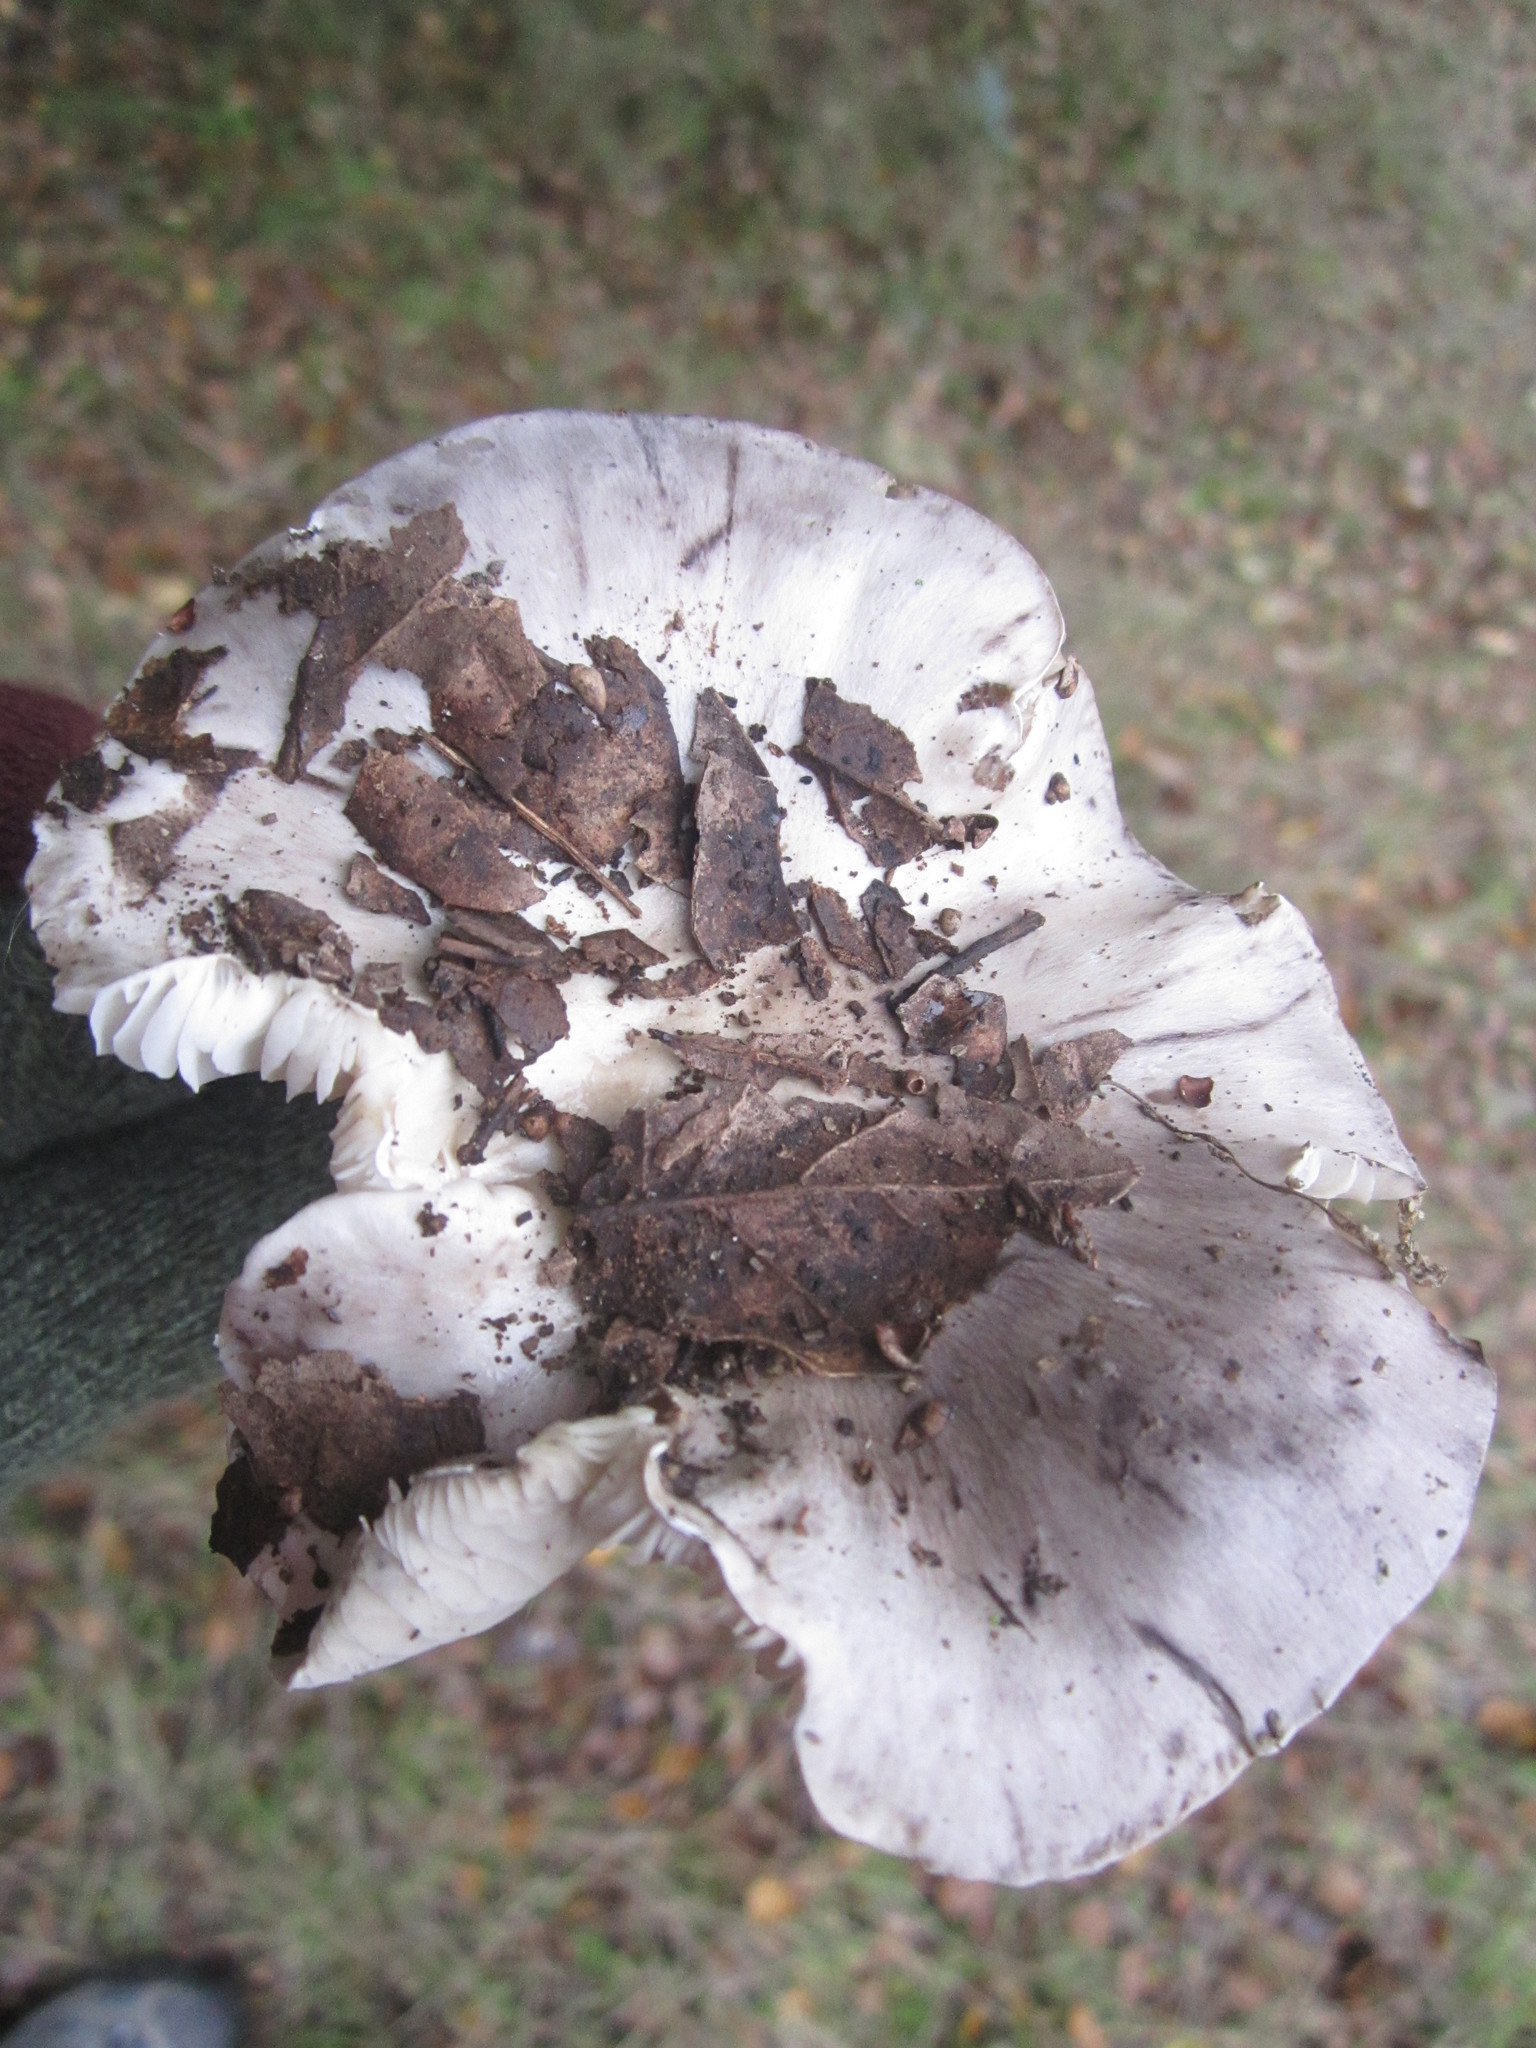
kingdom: Fungi
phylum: Basidiomycota
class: Agaricomycetes
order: Agaricales
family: Tricholomataceae
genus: Tricholoma
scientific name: Tricholoma griseoviolaceum
